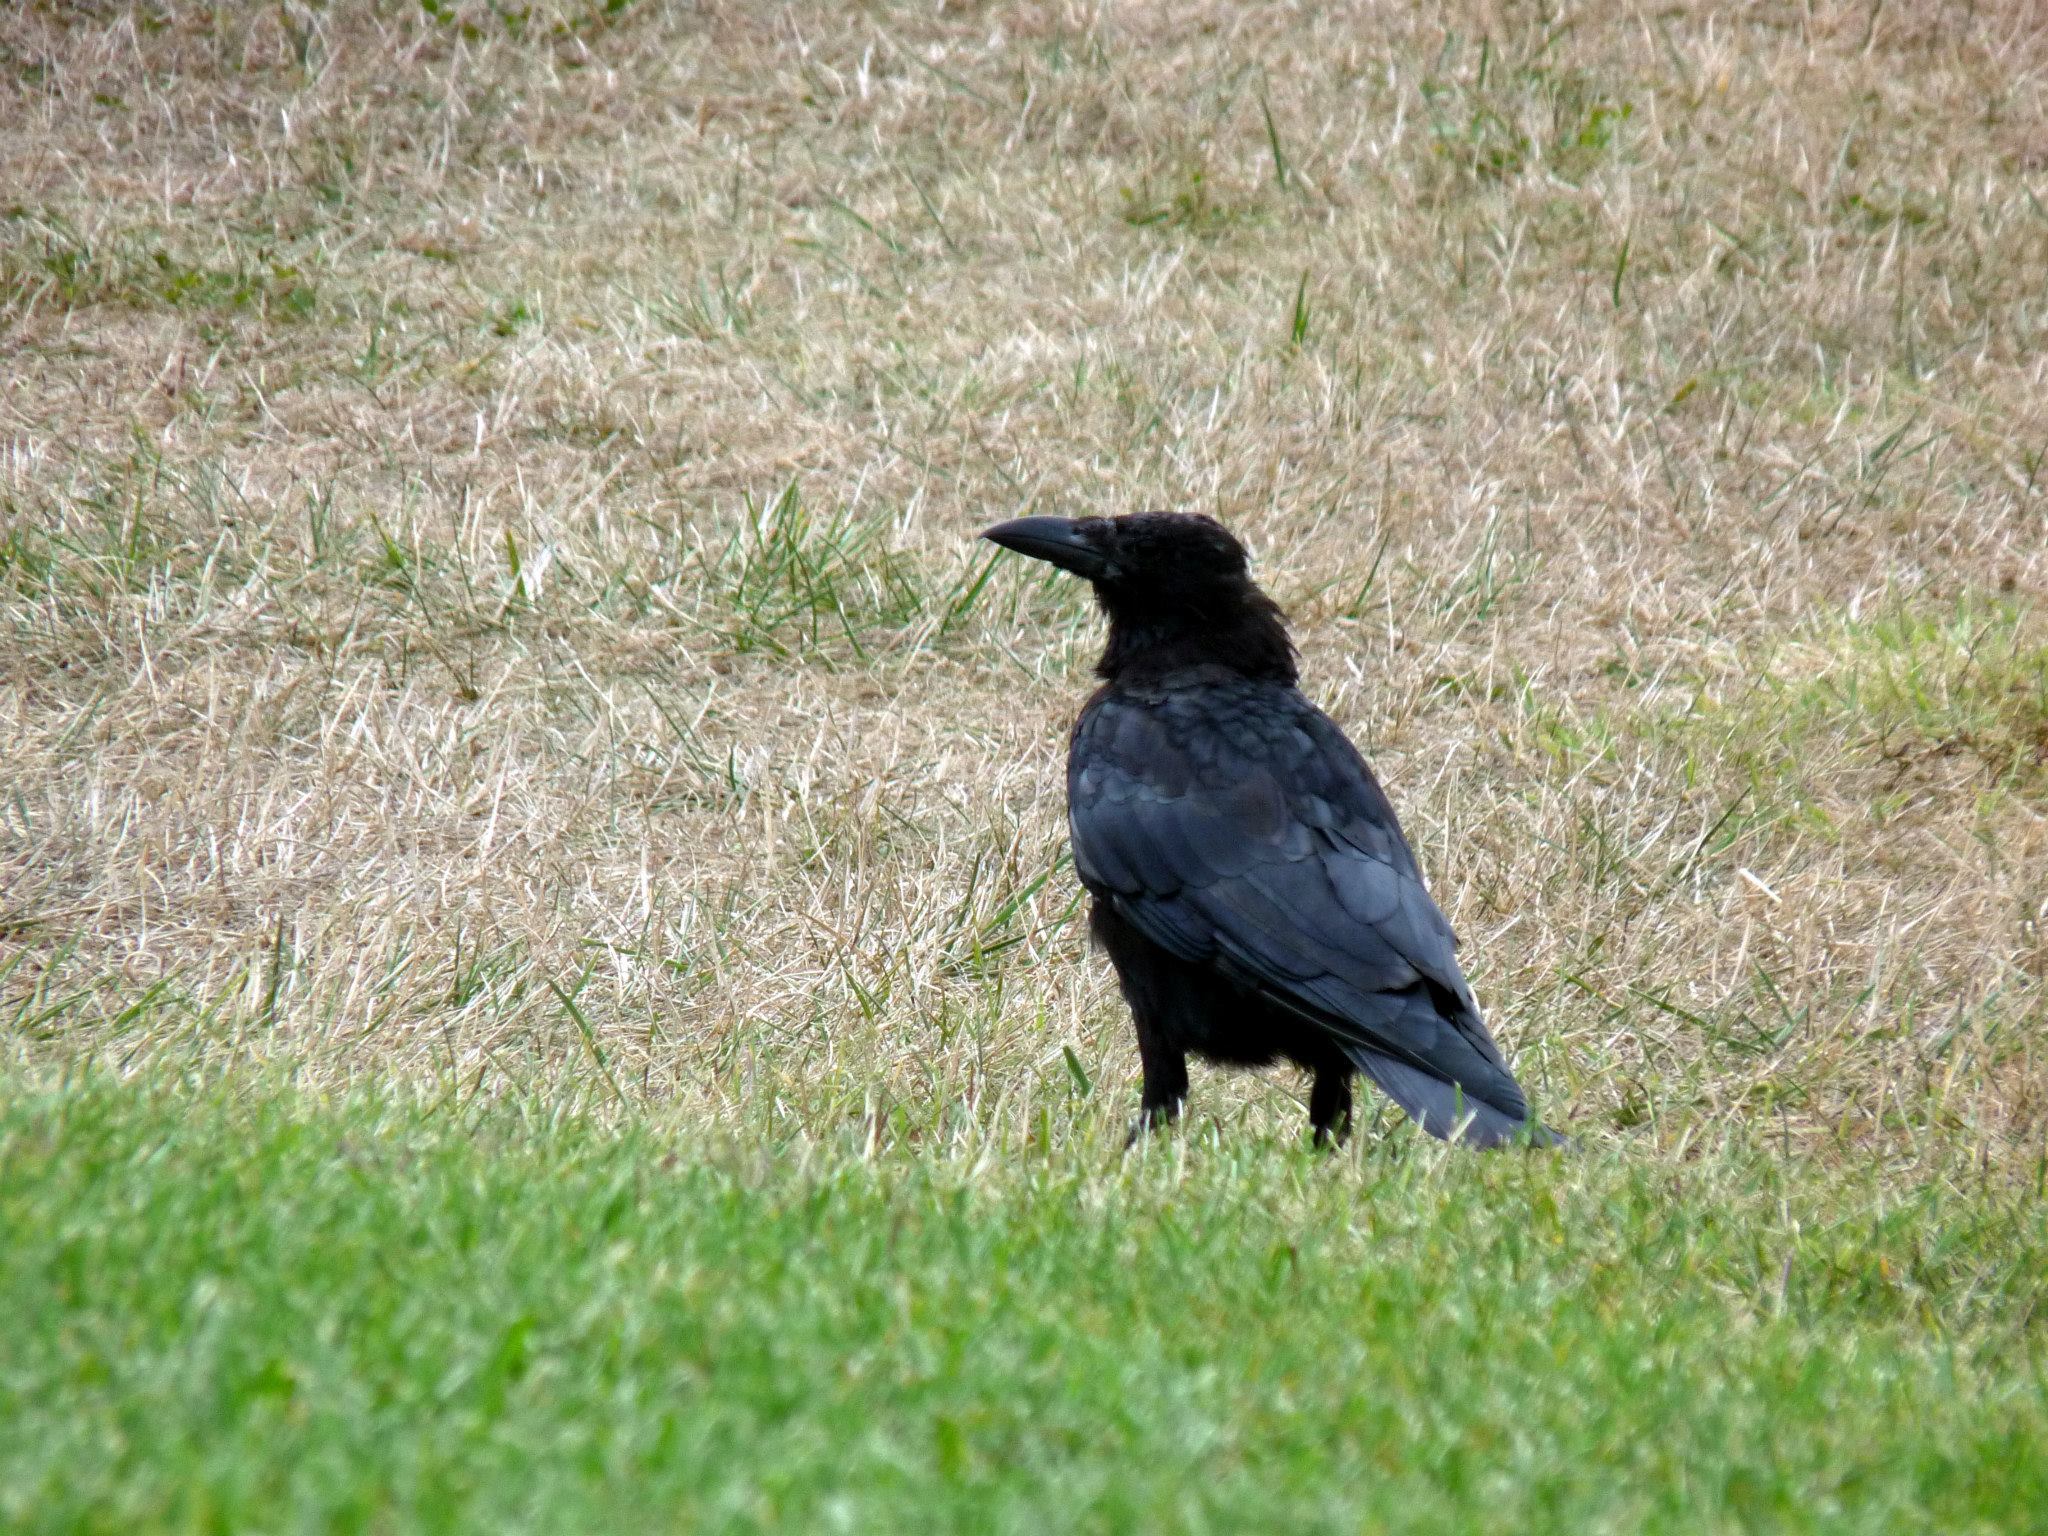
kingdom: Animalia
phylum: Chordata
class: Aves
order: Passeriformes
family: Corvidae
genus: Corvus
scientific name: Corvus corone
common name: Carrion crow
